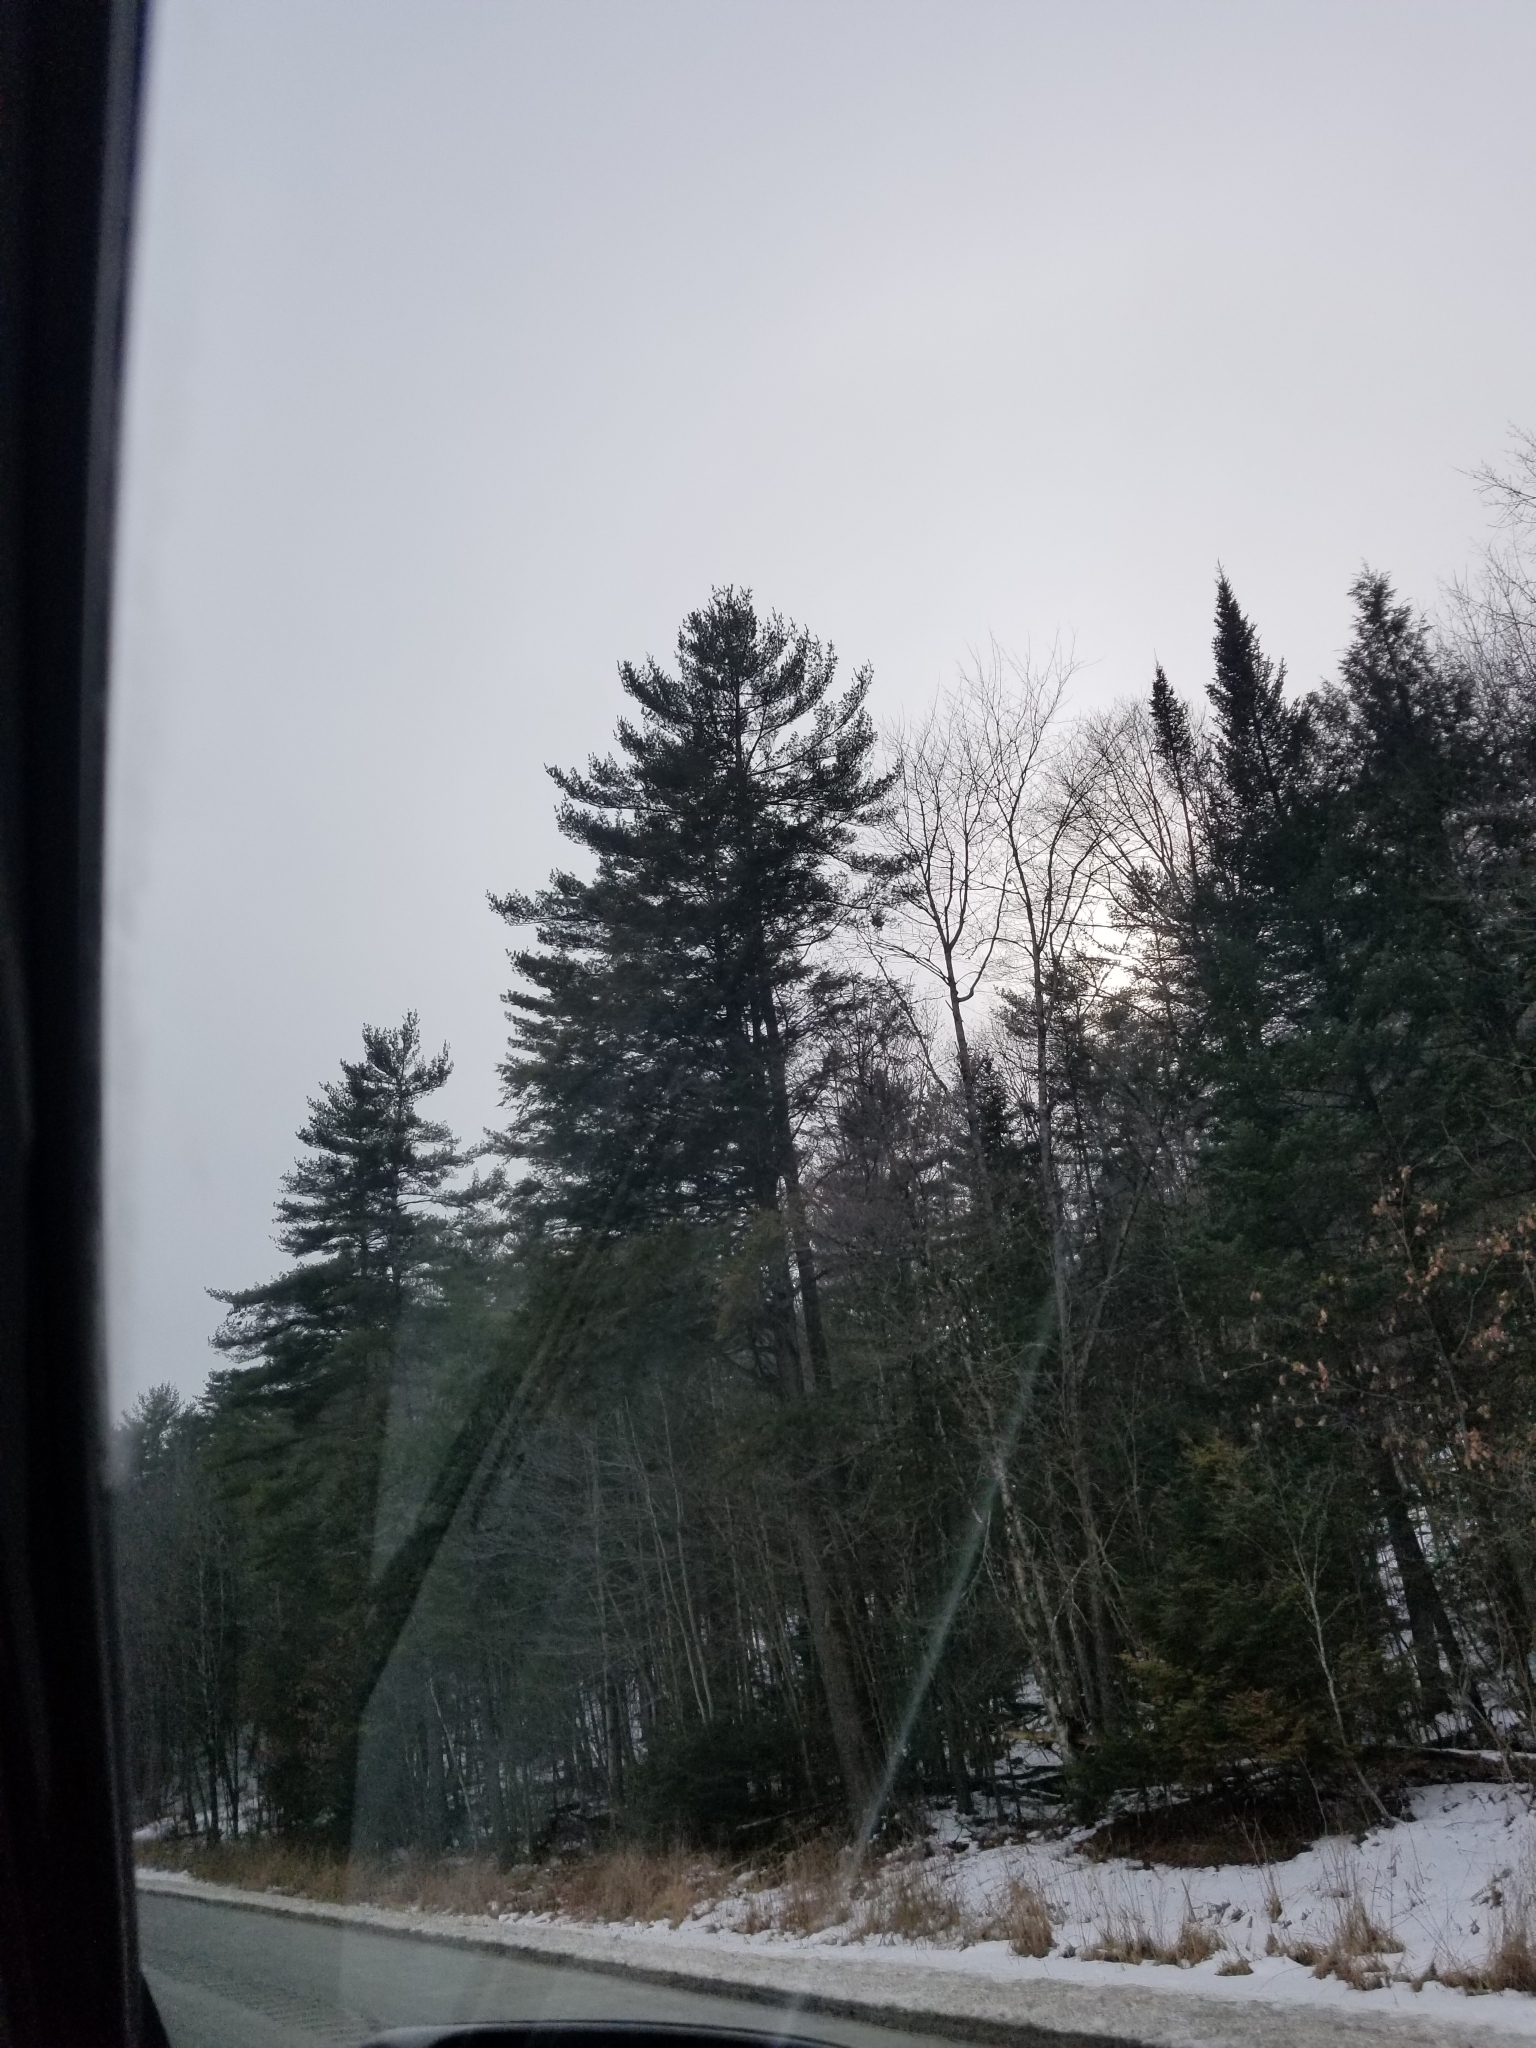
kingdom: Plantae
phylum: Tracheophyta
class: Pinopsida
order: Pinales
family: Pinaceae
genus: Pinus
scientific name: Pinus strobus
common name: Weymouth pine
